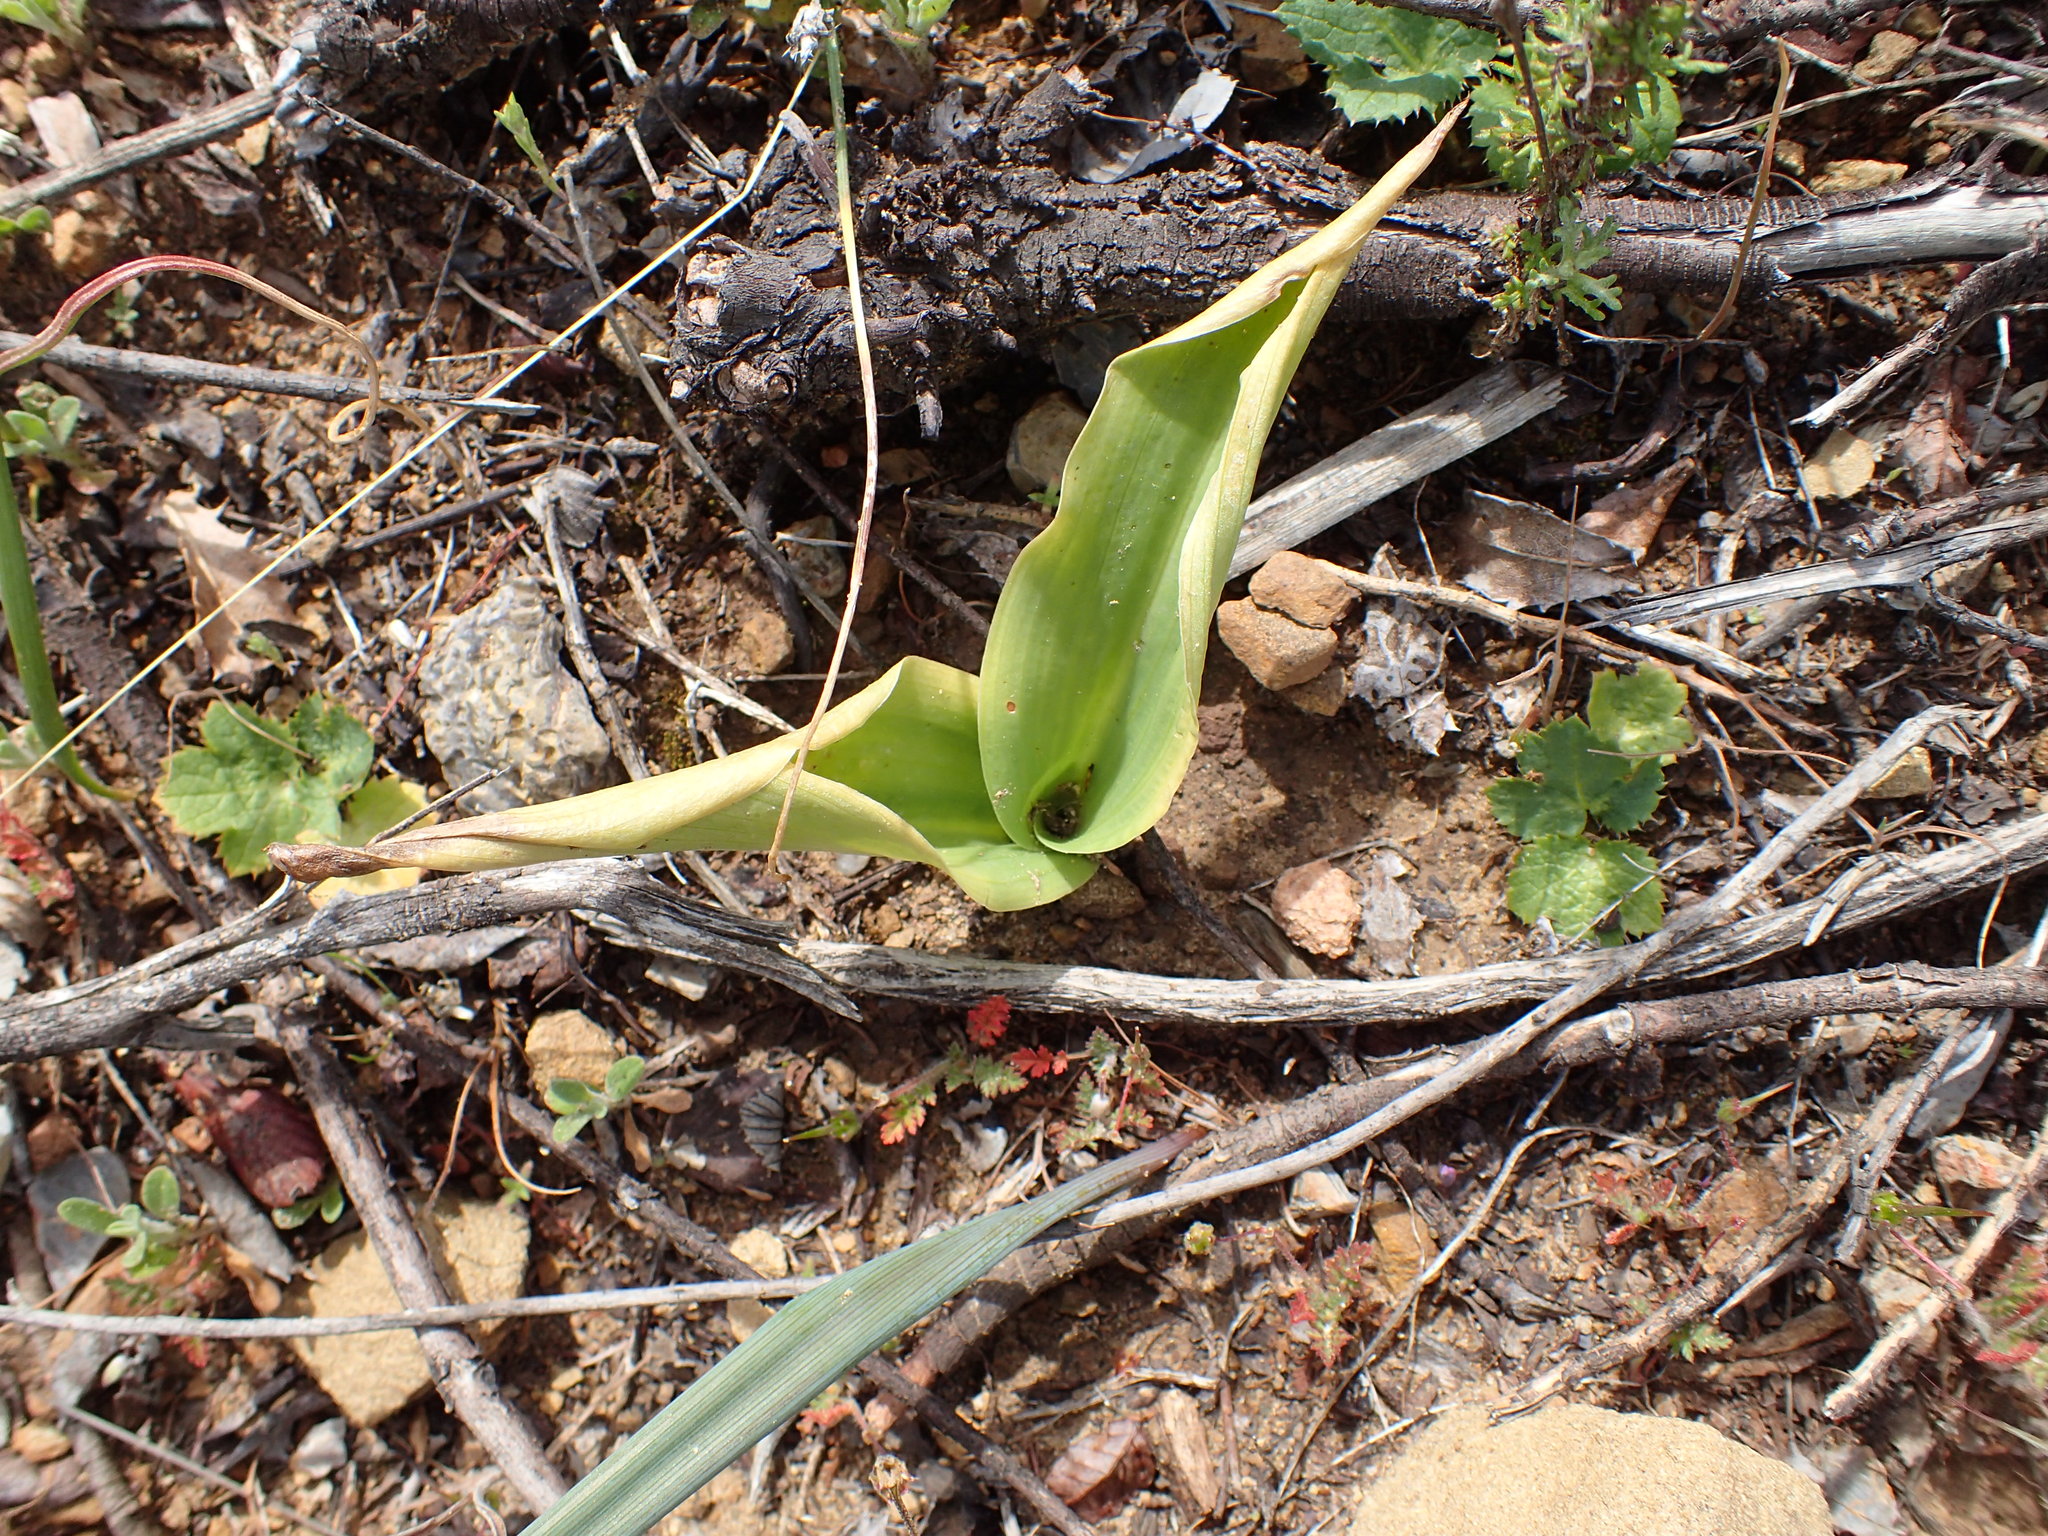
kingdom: Plantae
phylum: Tracheophyta
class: Liliopsida
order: Asparagales
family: Orchidaceae
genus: Platanthera
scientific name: Platanthera elongata
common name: Dense-flowered rein orchid
